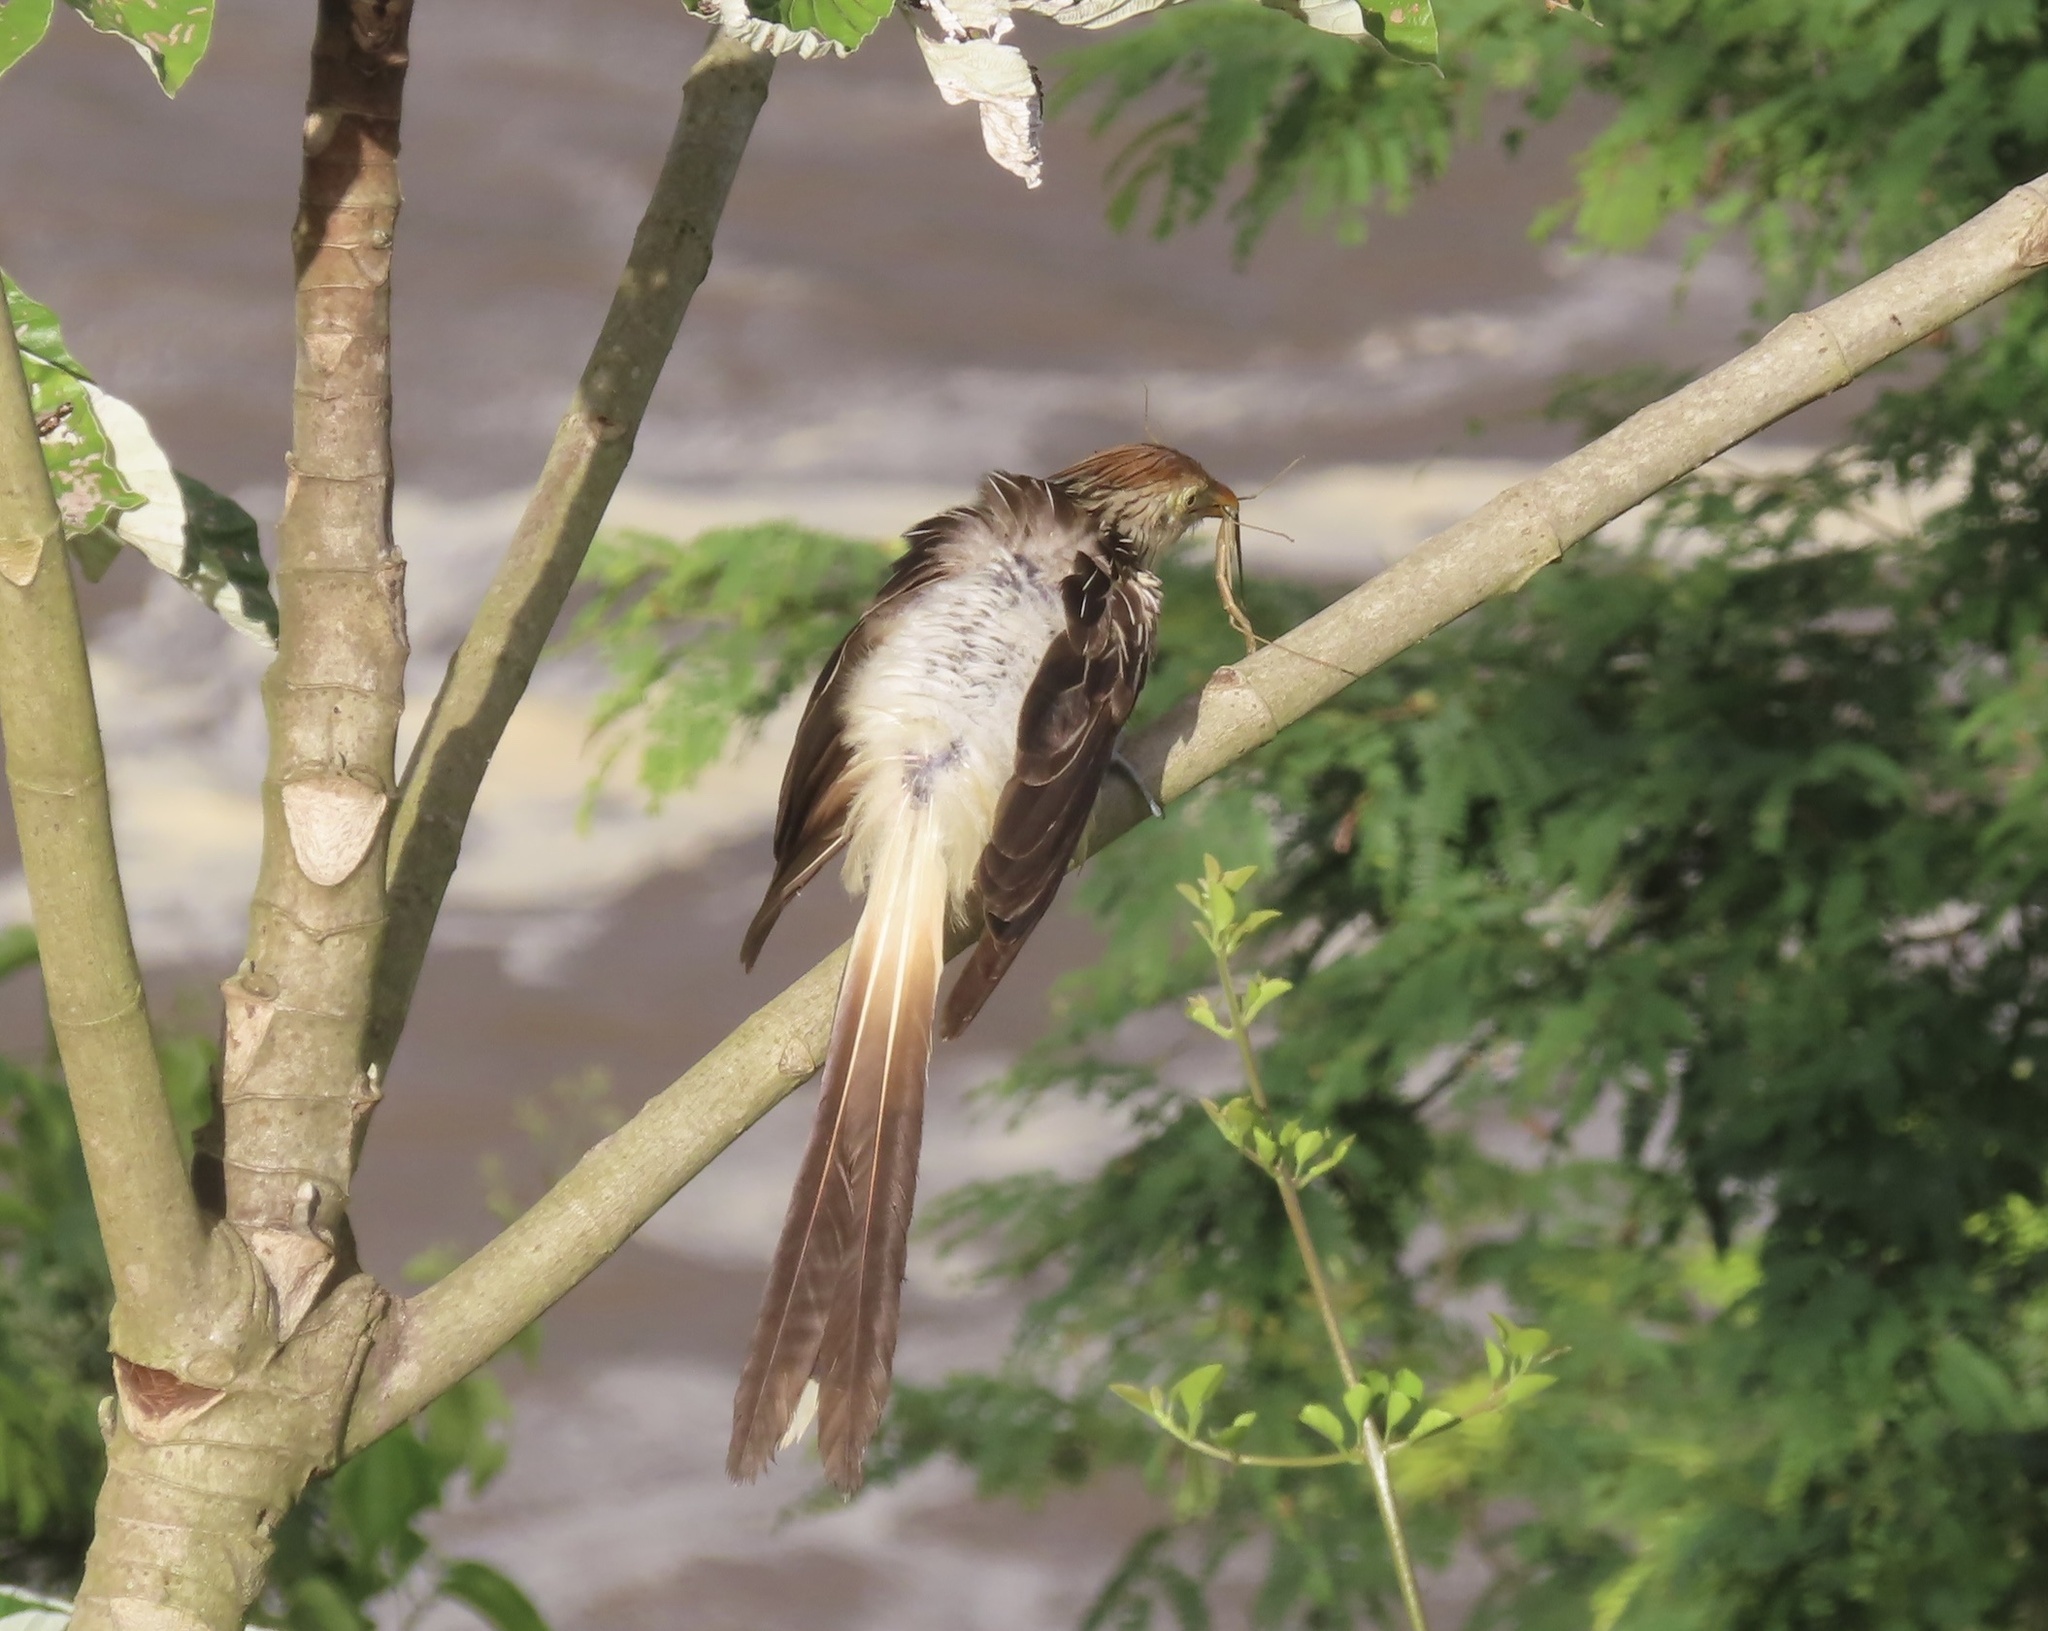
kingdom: Animalia
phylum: Chordata
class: Aves
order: Cuculiformes
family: Cuculidae
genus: Guira
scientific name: Guira guira
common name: Guira cuckoo
